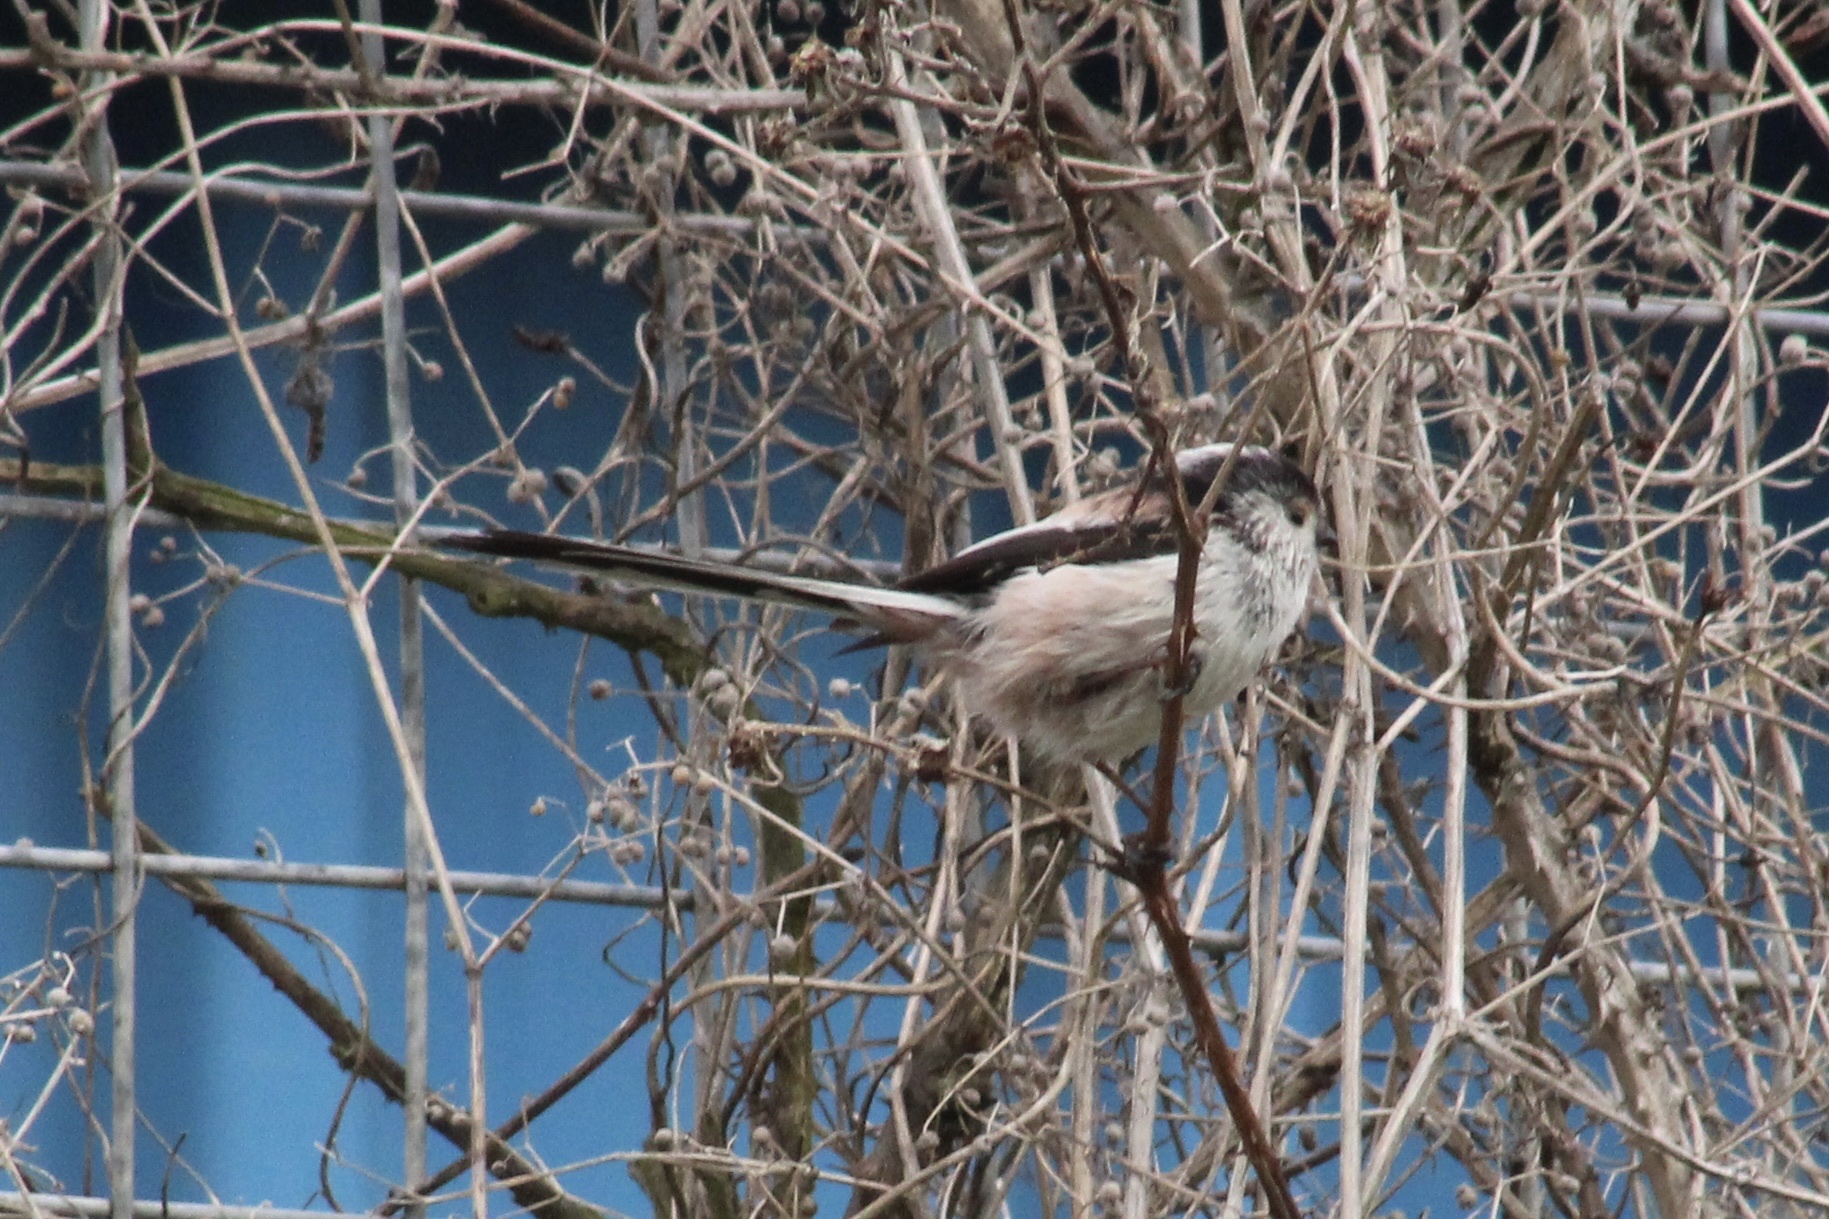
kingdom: Animalia
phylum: Chordata
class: Aves
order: Passeriformes
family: Aegithalidae
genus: Aegithalos
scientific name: Aegithalos caudatus
